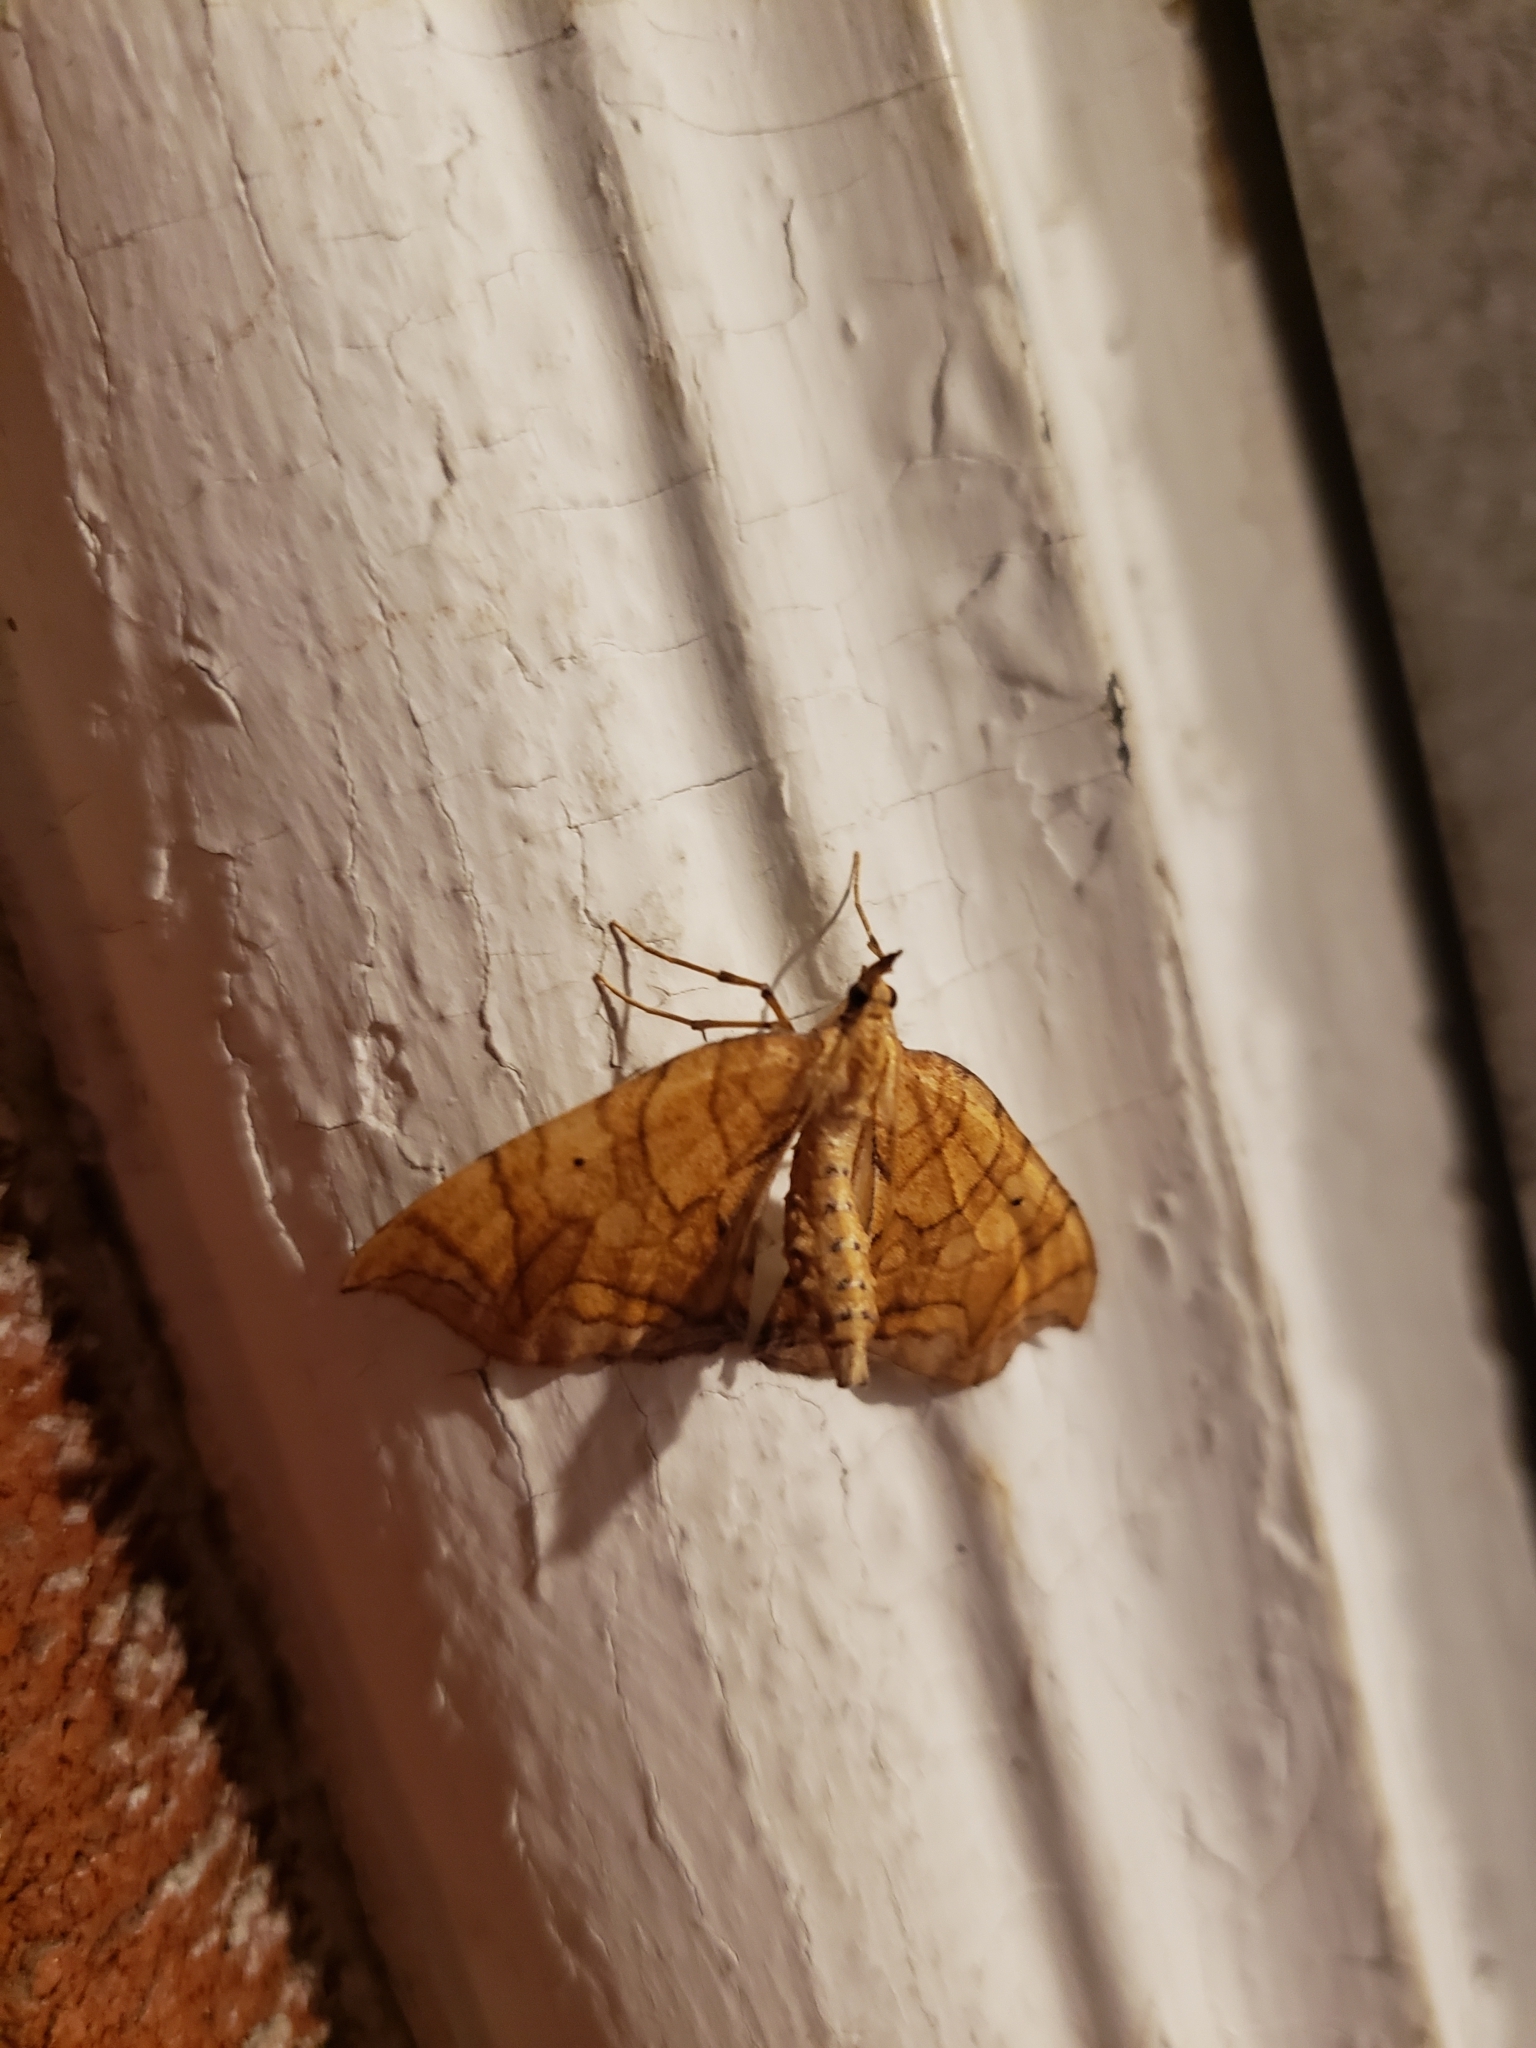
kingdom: Animalia
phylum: Arthropoda
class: Insecta
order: Lepidoptera
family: Geometridae
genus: Eulithis
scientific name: Eulithis gracilineata
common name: Greater grapevine looper moth
